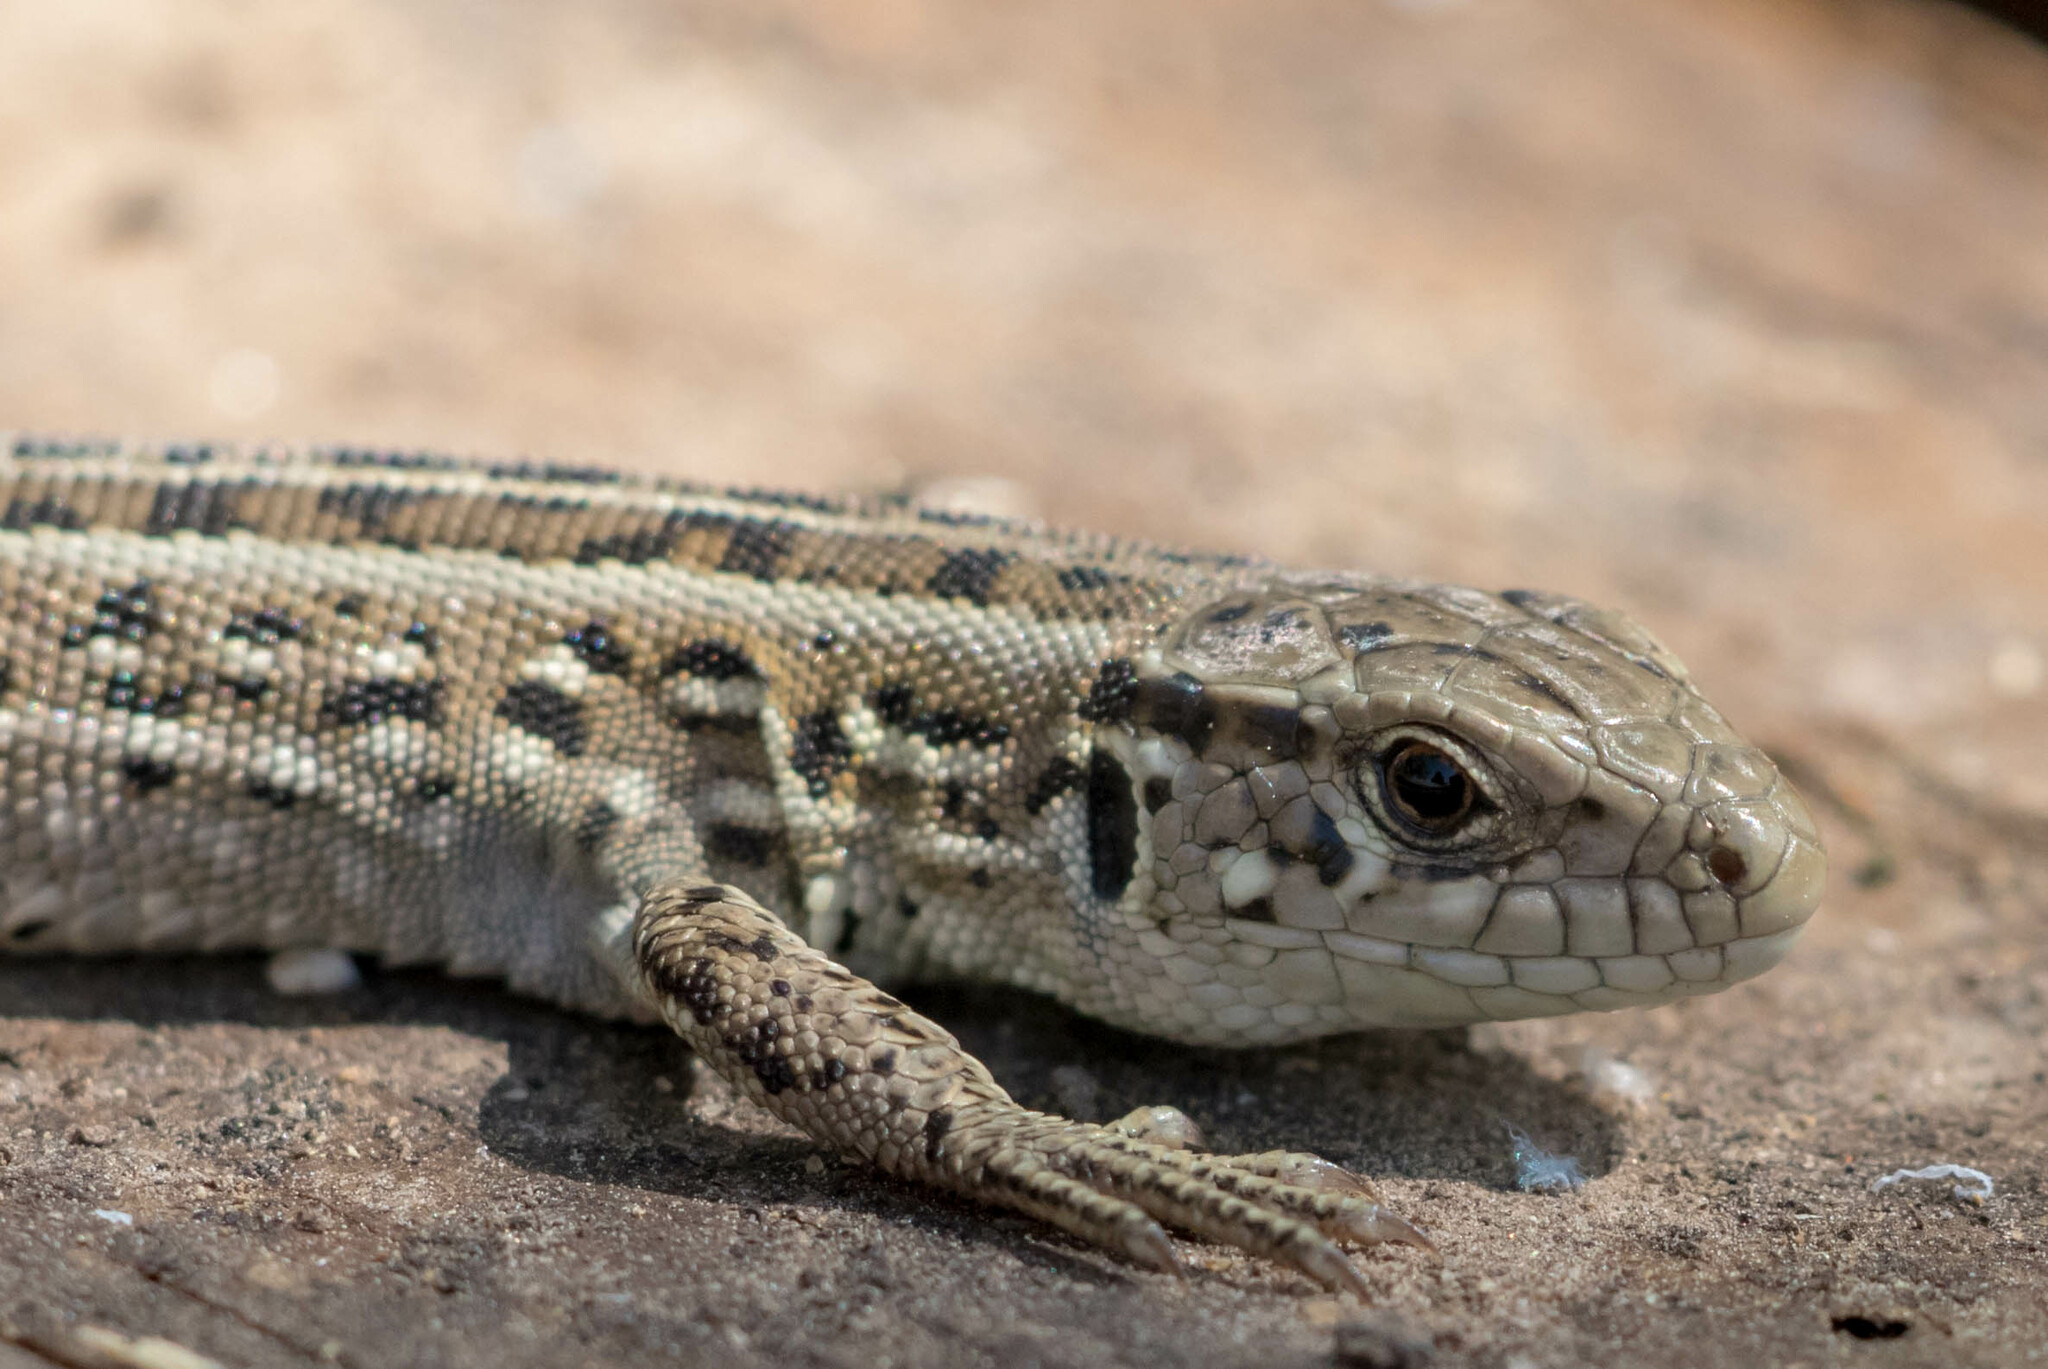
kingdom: Animalia
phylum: Chordata
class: Squamata
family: Lacertidae
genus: Lacerta
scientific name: Lacerta agilis
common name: Sand lizard
